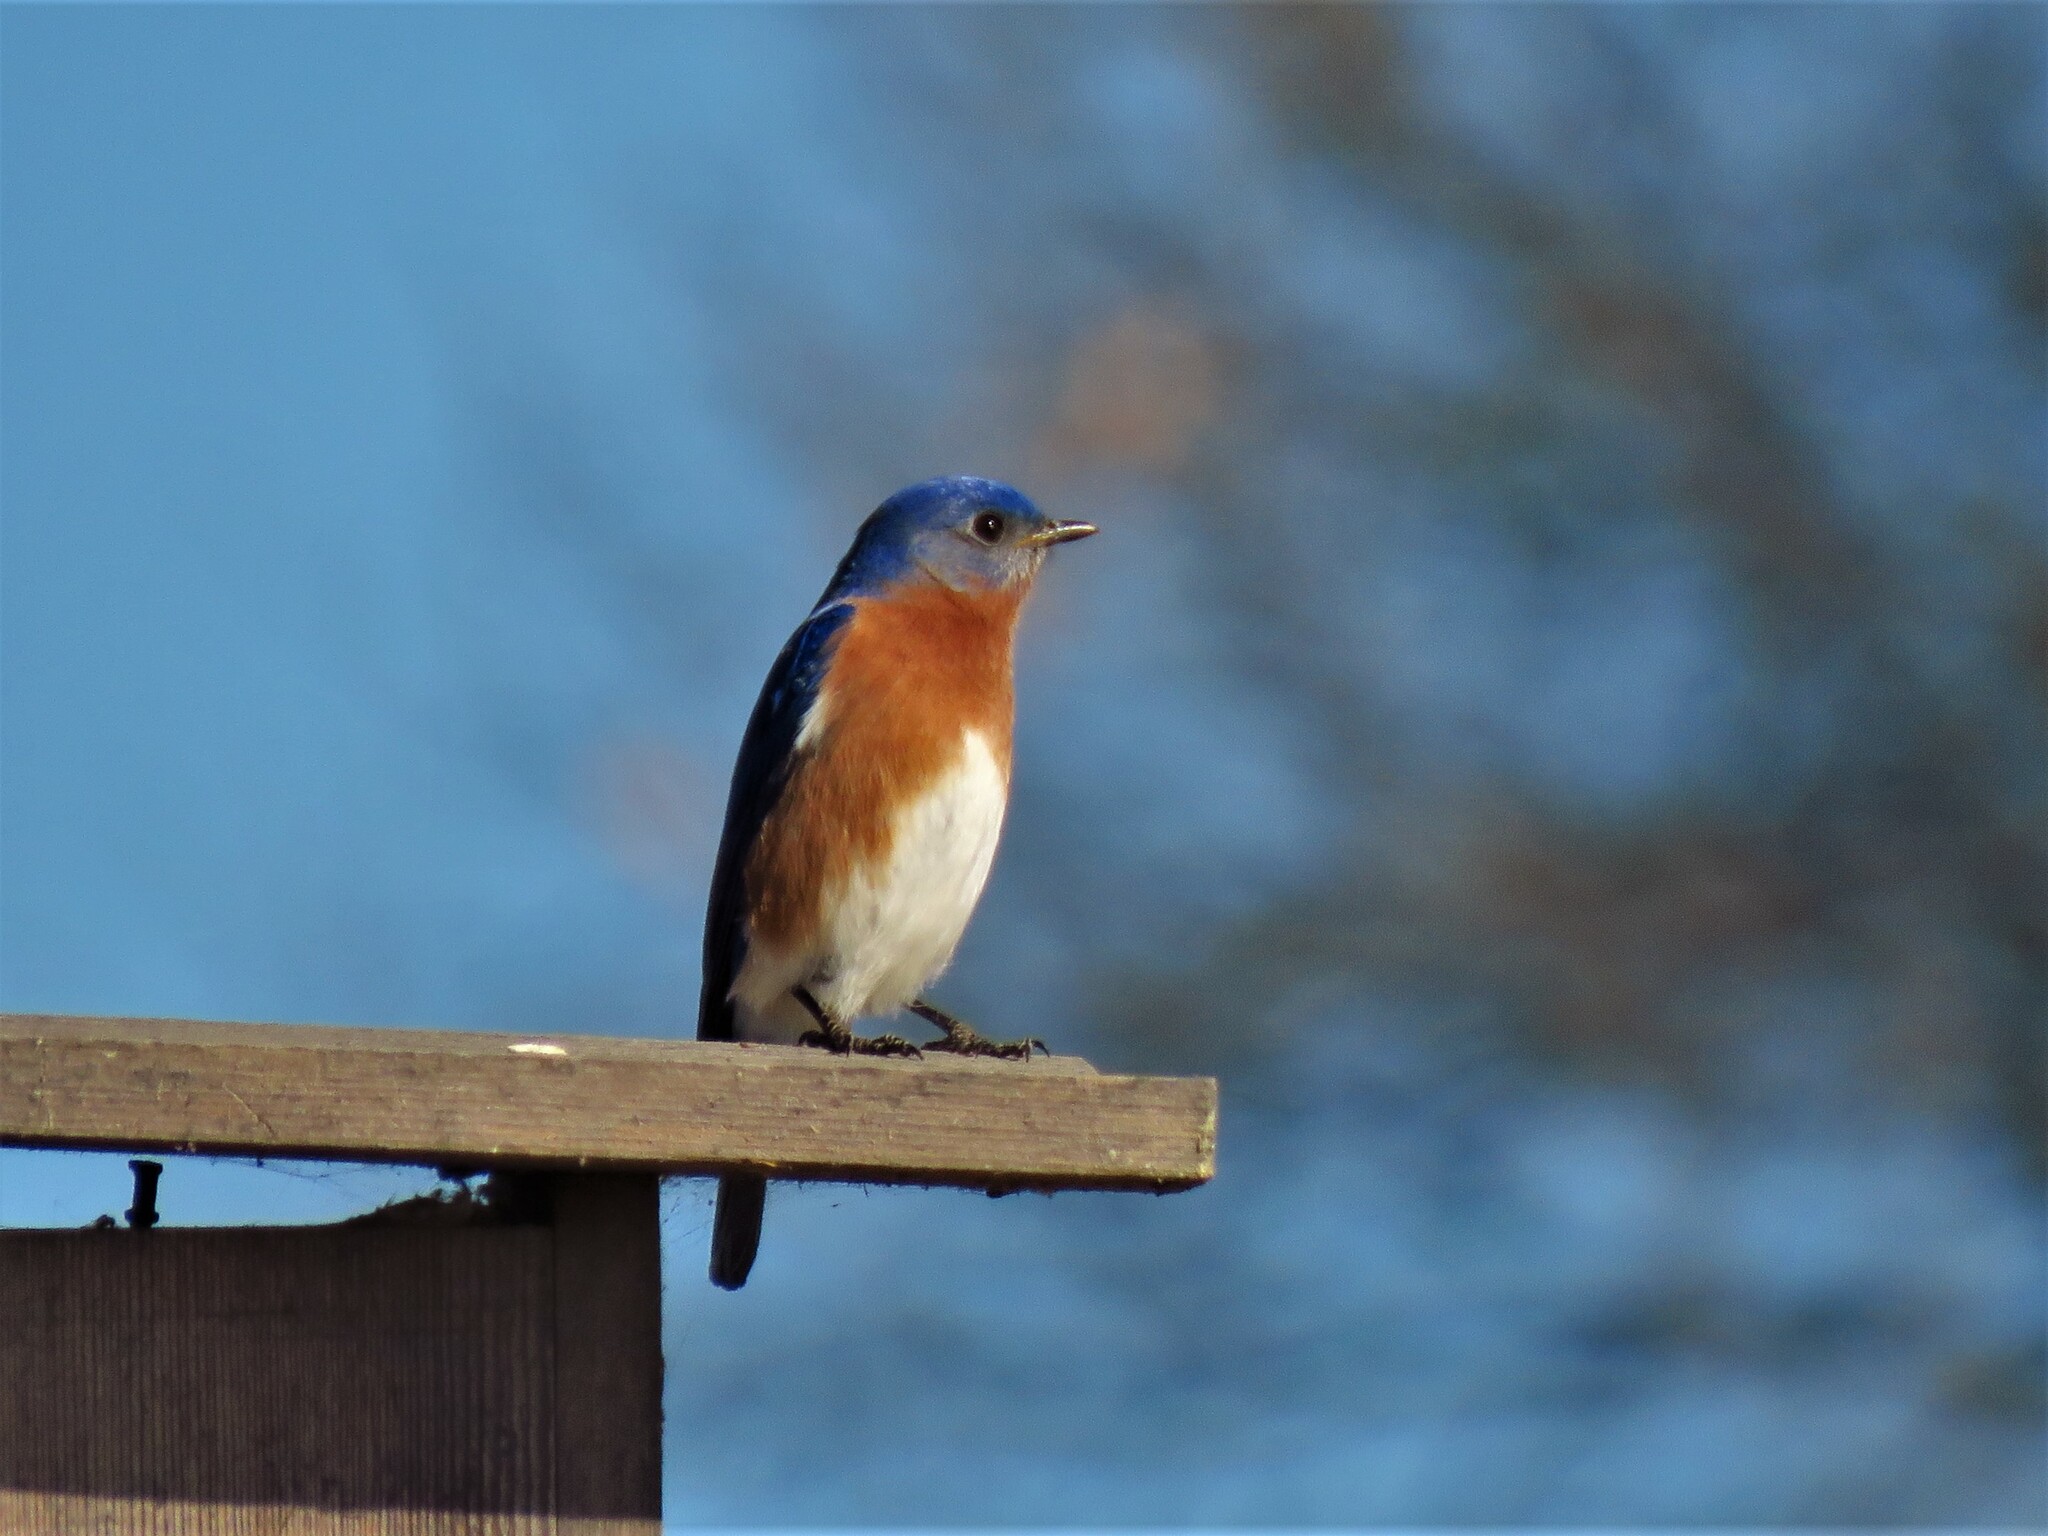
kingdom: Animalia
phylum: Chordata
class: Aves
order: Passeriformes
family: Turdidae
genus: Sialia
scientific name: Sialia sialis
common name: Eastern bluebird
